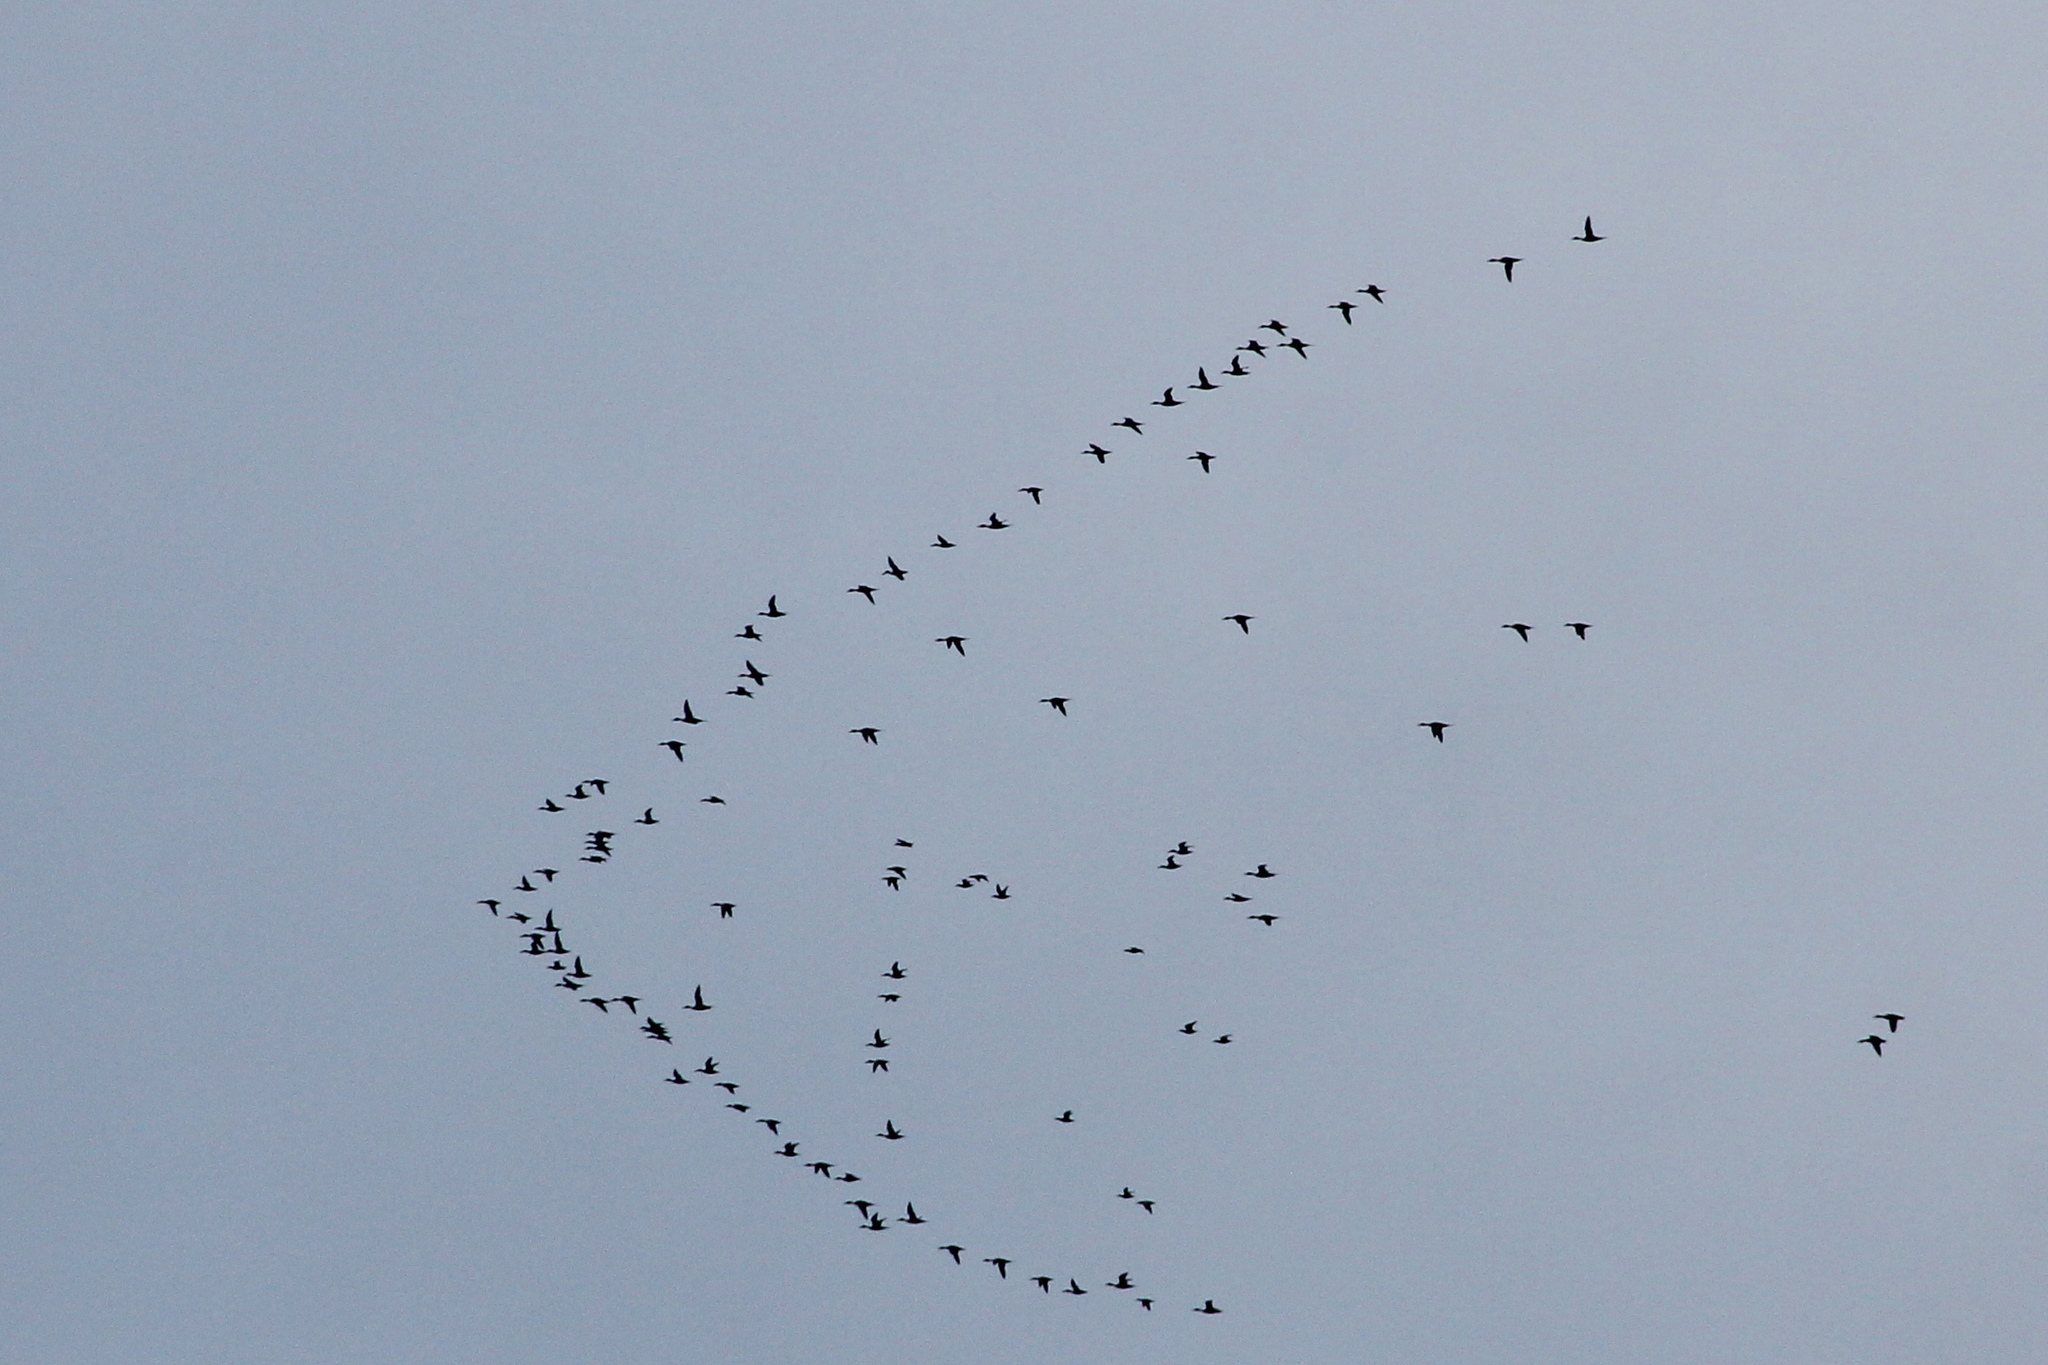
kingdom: Animalia
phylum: Chordata
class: Aves
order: Anseriformes
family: Anatidae
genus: Anas
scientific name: Anas acuta
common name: Northern pintail
